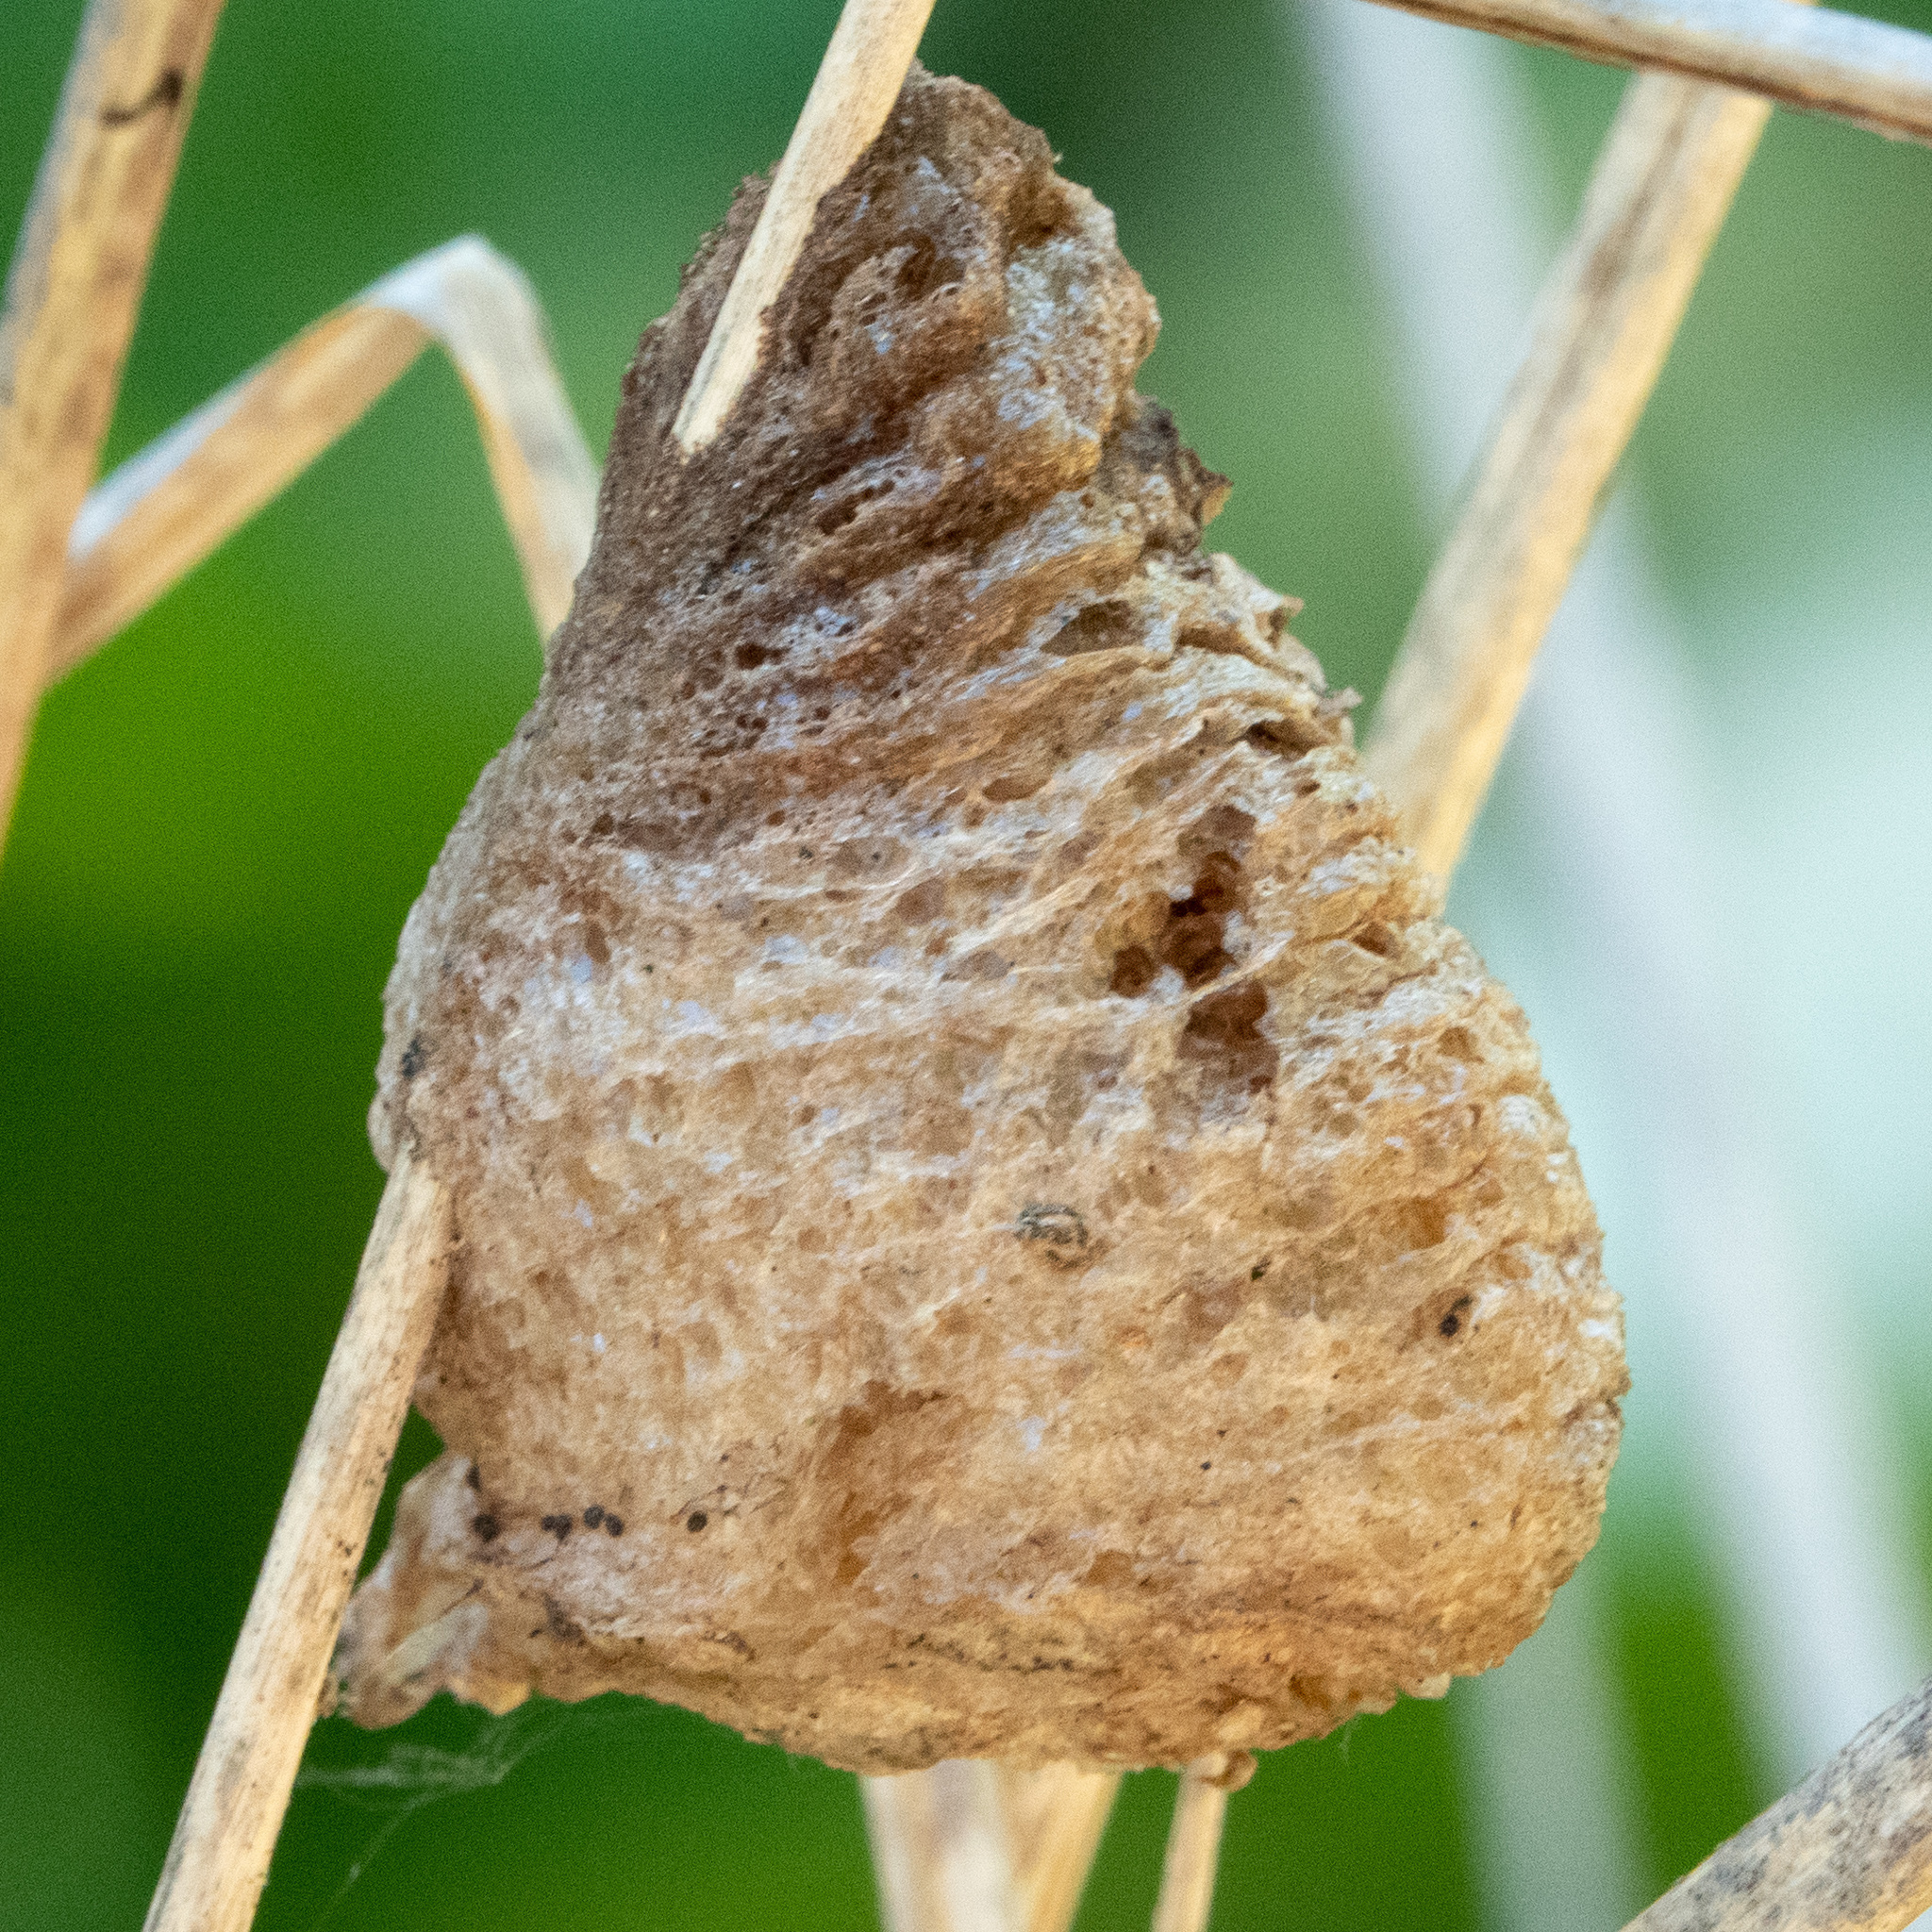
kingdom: Animalia
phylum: Arthropoda
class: Insecta
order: Mantodea
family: Mantidae
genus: Tenodera
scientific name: Tenodera sinensis
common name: Chinese mantis
